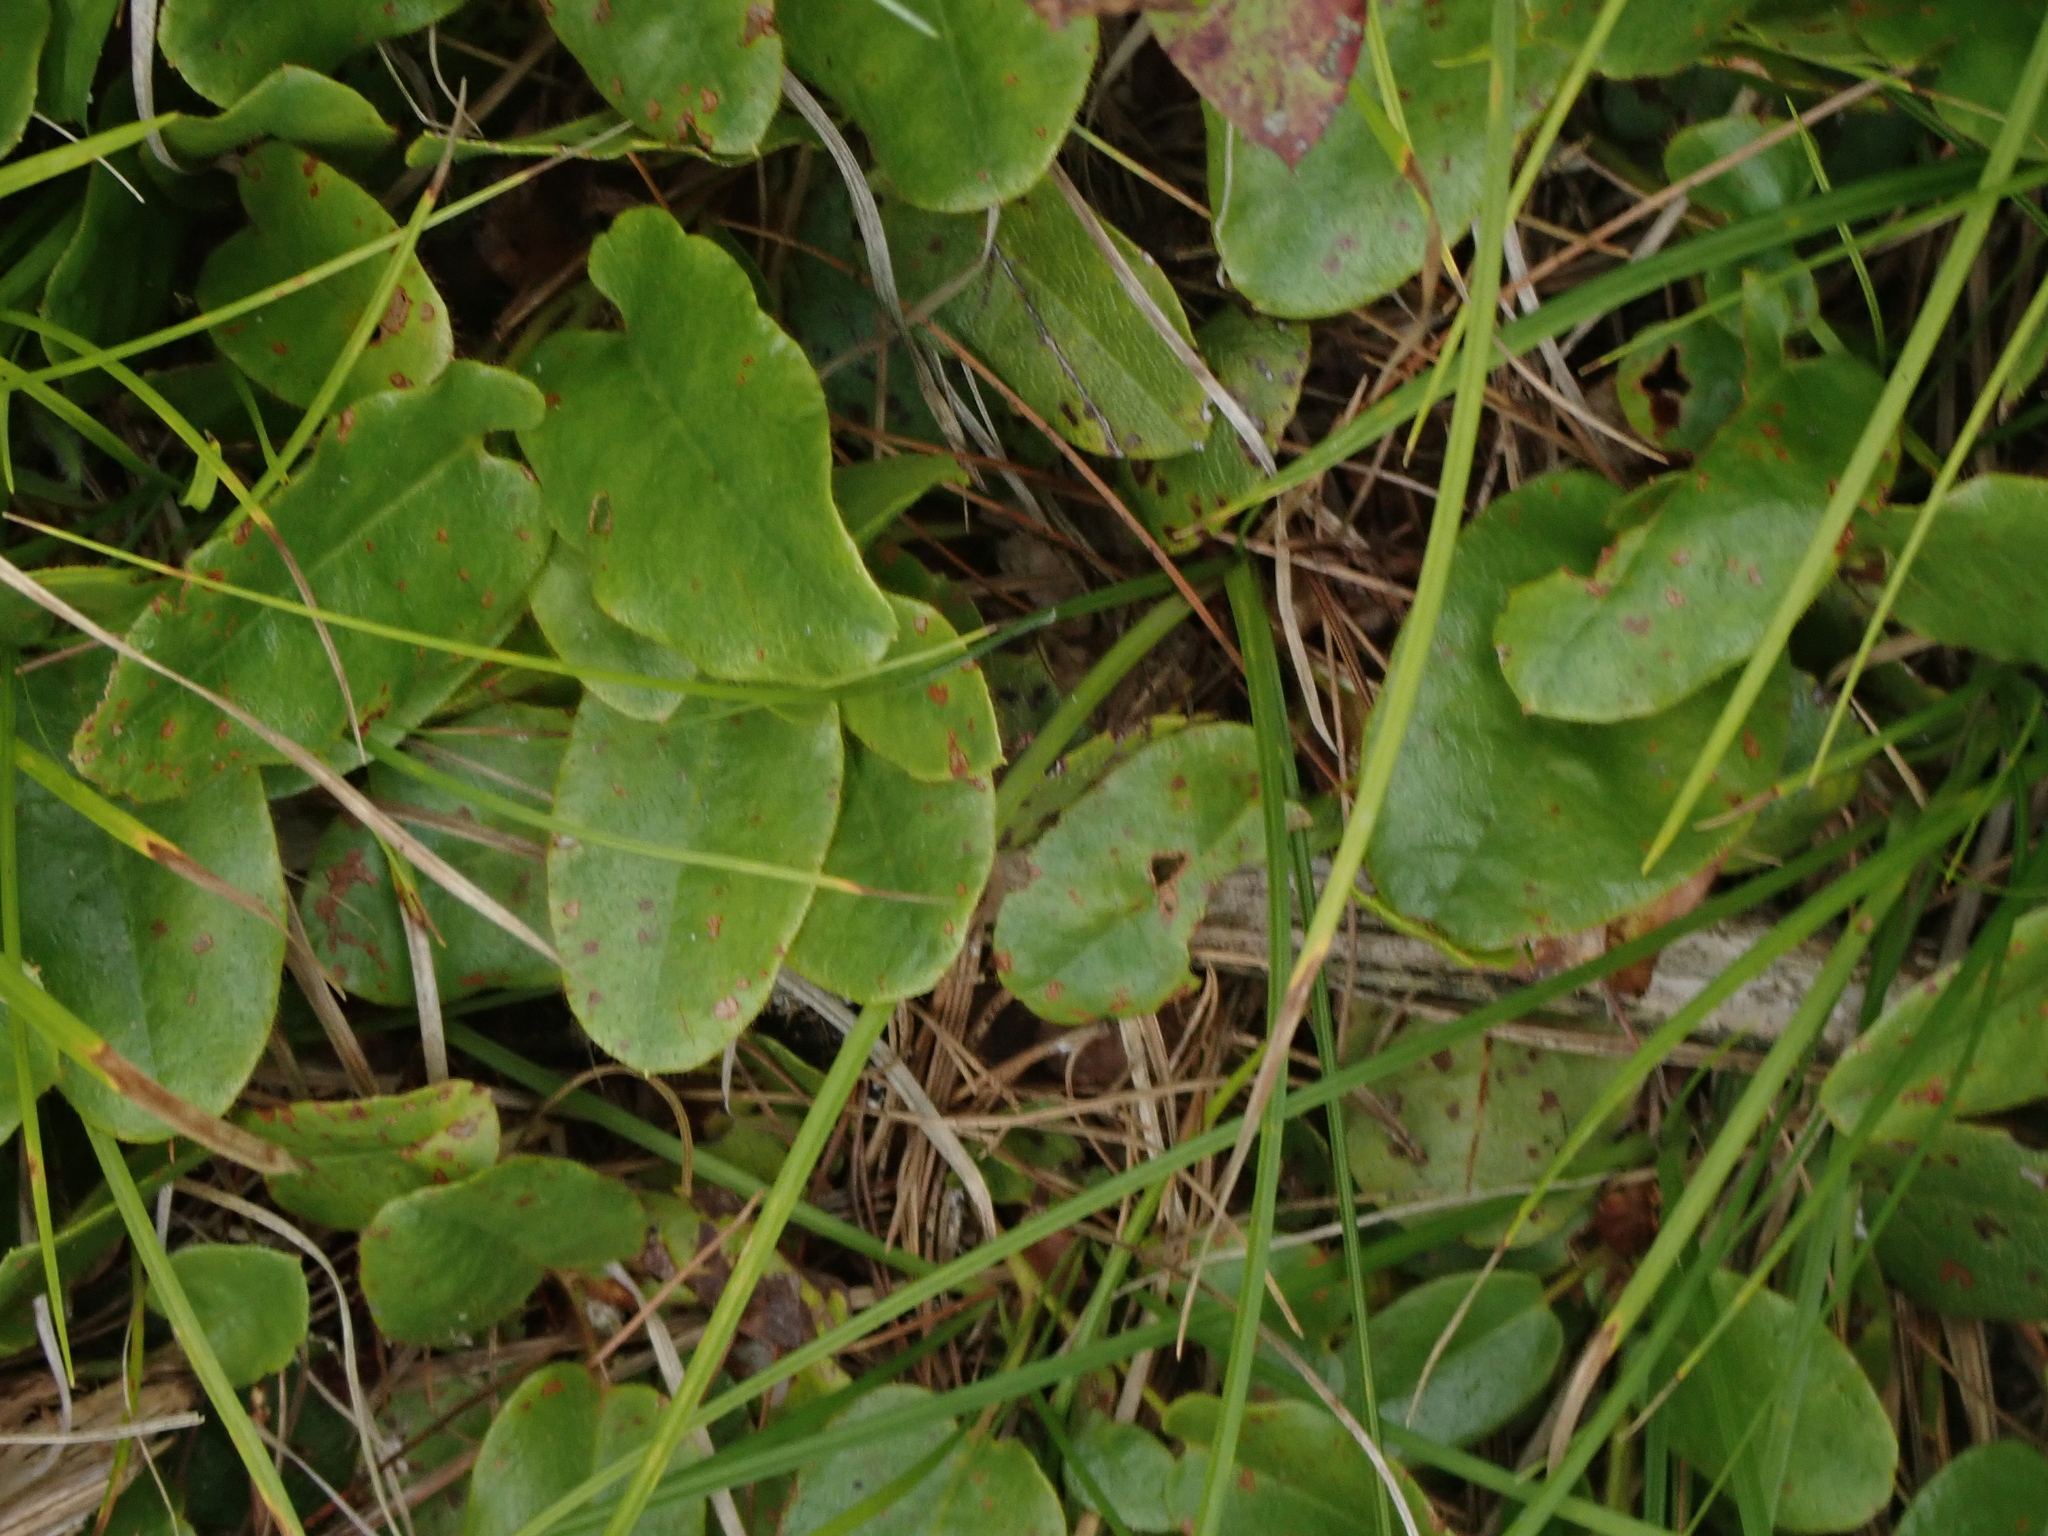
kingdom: Plantae
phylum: Tracheophyta
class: Magnoliopsida
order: Ericales
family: Ericaceae
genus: Epigaea
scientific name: Epigaea repens
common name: Gravelroot
